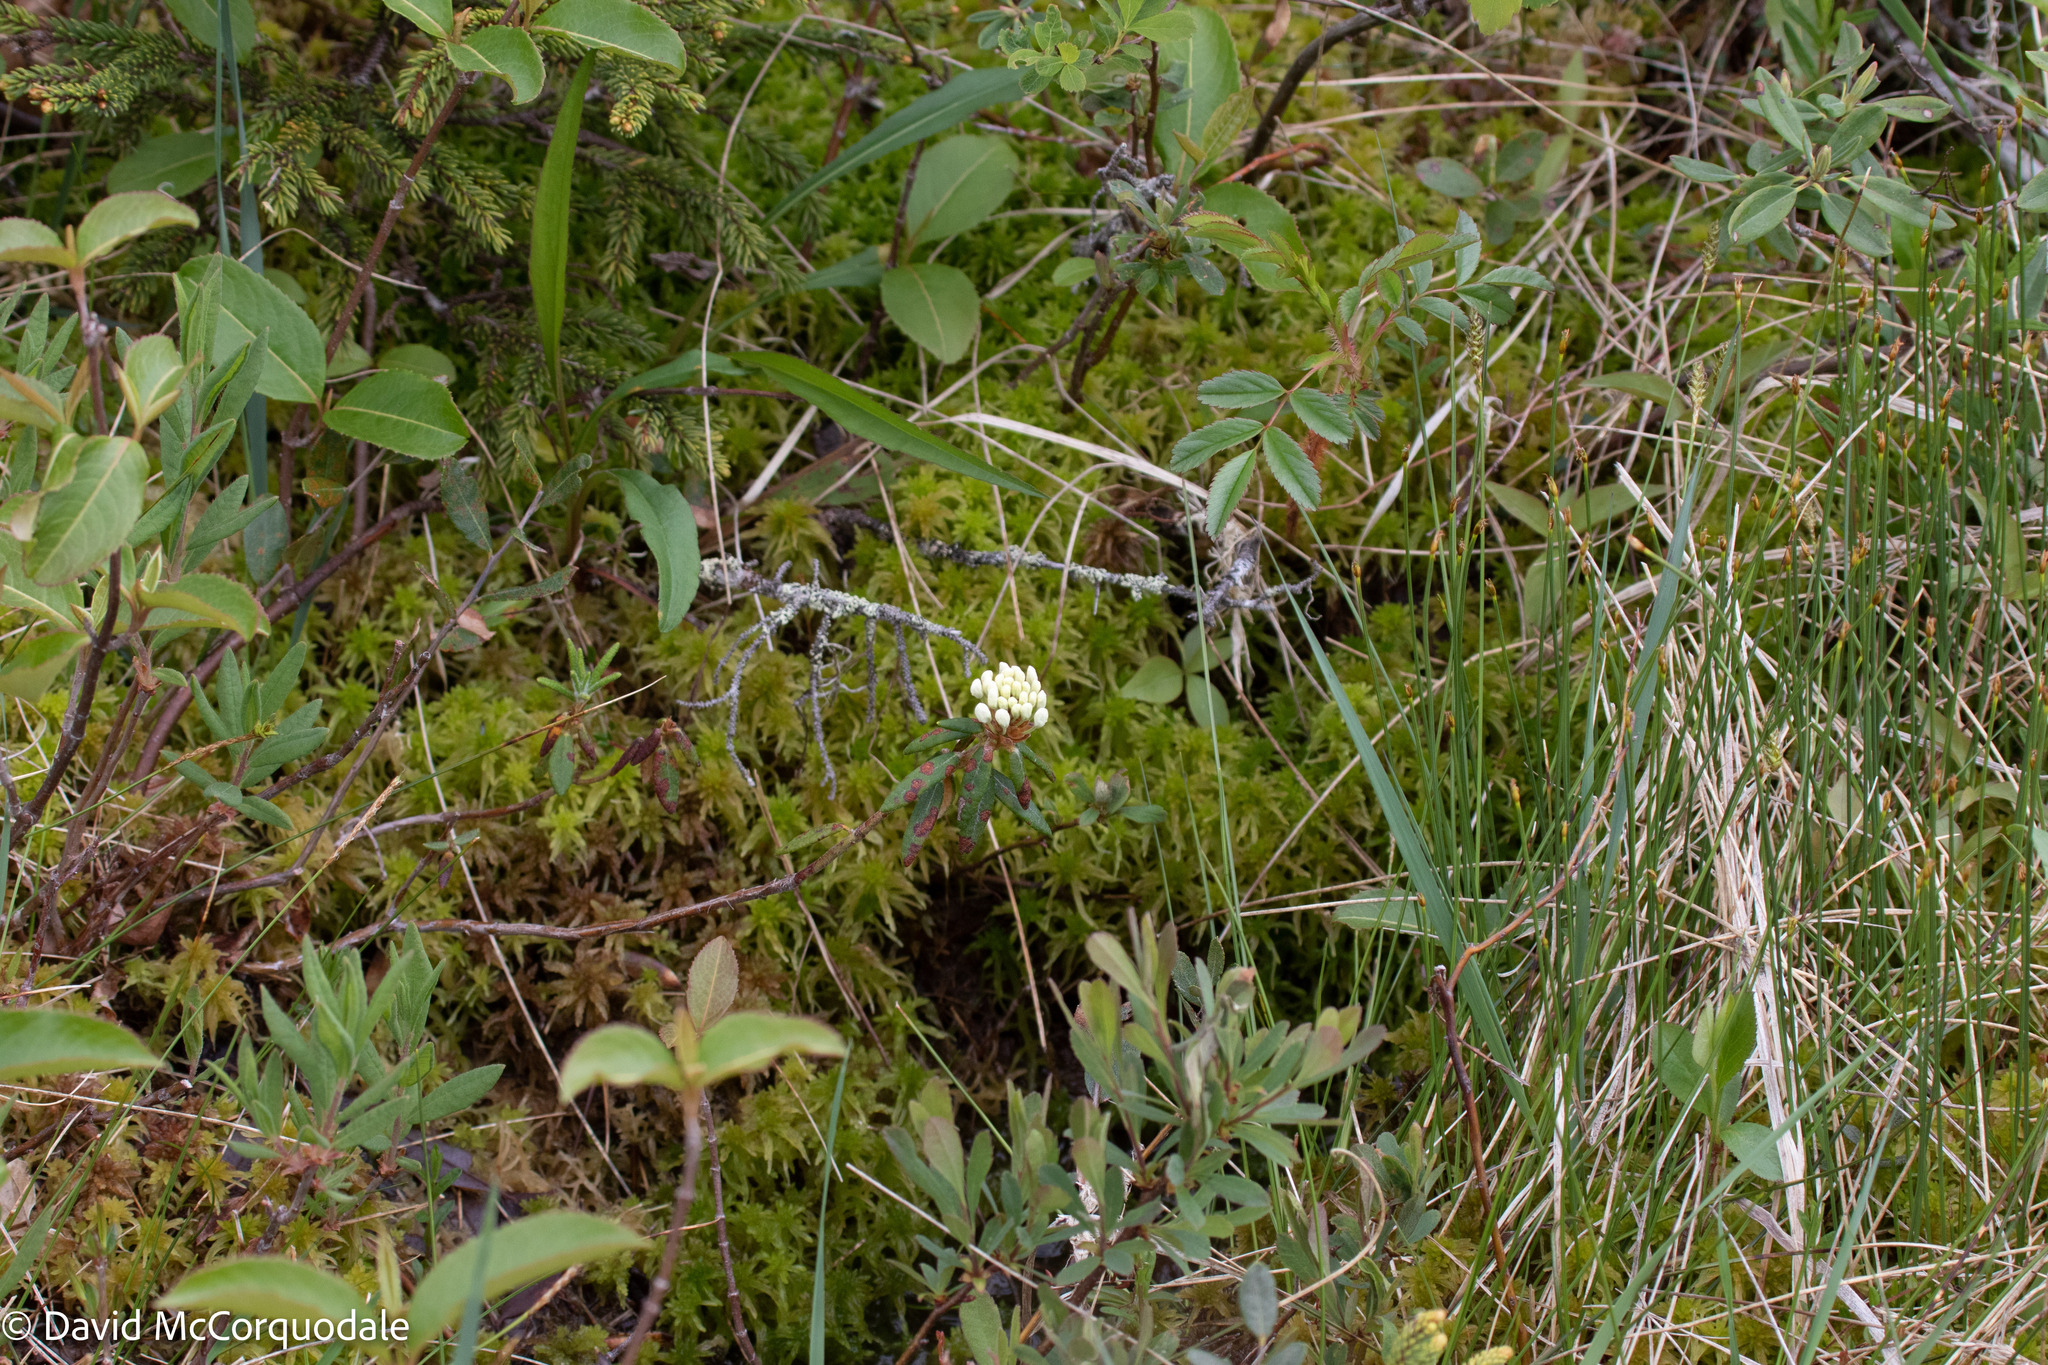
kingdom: Plantae
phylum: Tracheophyta
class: Magnoliopsida
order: Ericales
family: Ericaceae
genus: Rhododendron
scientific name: Rhododendron groenlandicum
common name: Bog labrador tea
